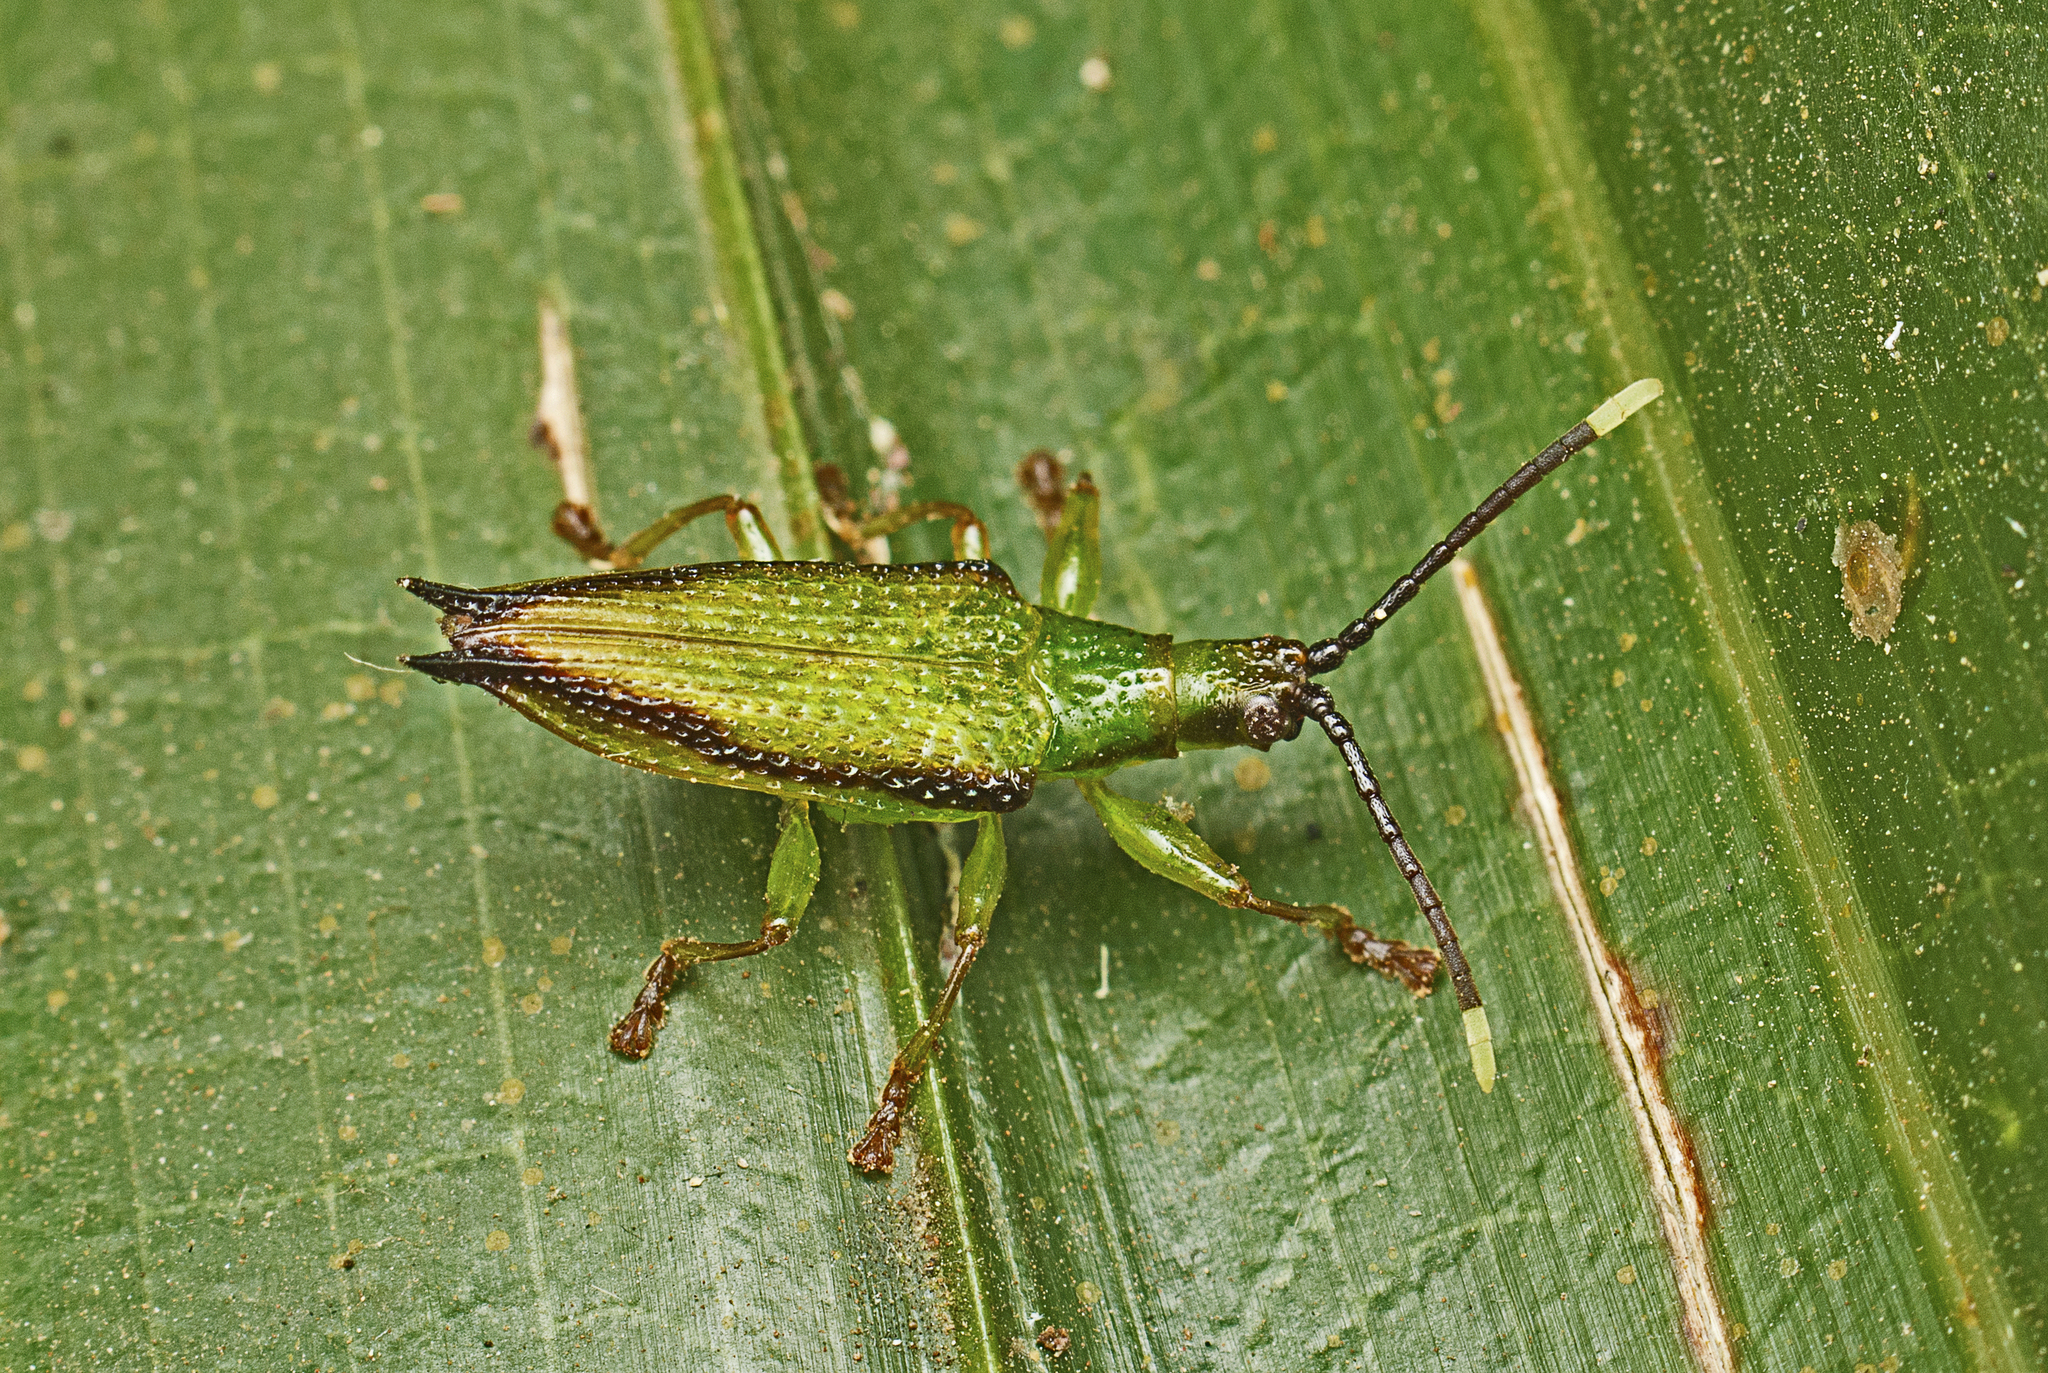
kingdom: Animalia
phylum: Arthropoda
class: Insecta
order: Coleoptera
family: Chrysomelidae
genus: Aproida
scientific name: Aproida balyi
